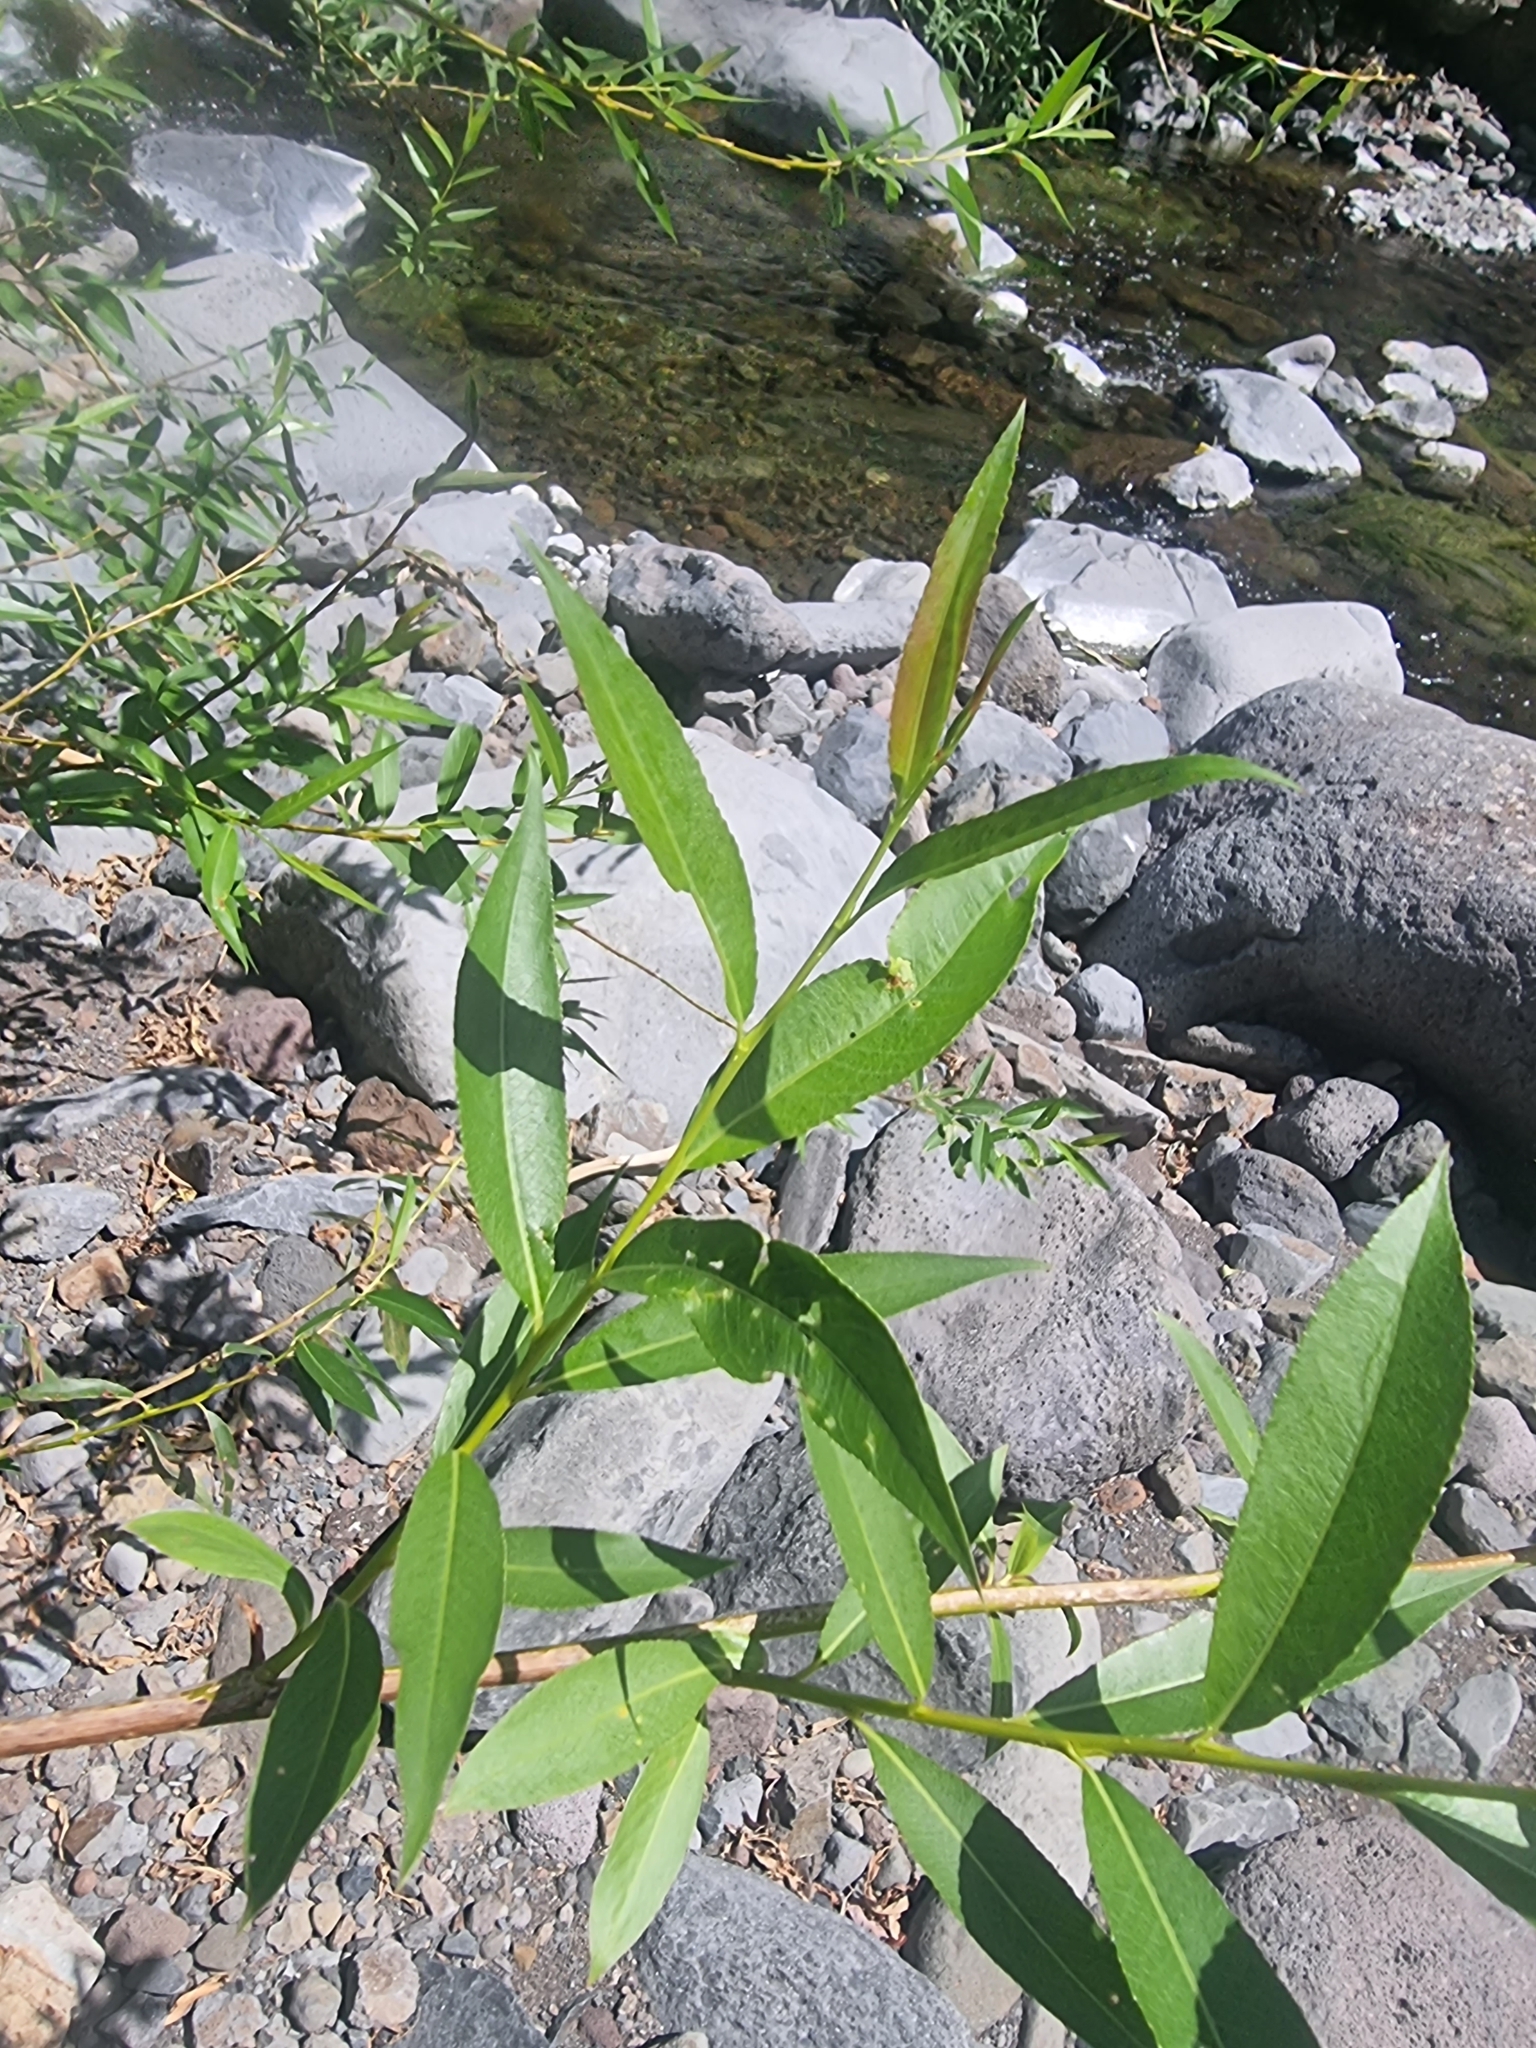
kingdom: Plantae
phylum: Tracheophyta
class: Magnoliopsida
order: Malpighiales
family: Salicaceae
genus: Salix
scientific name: Salix canariensis
